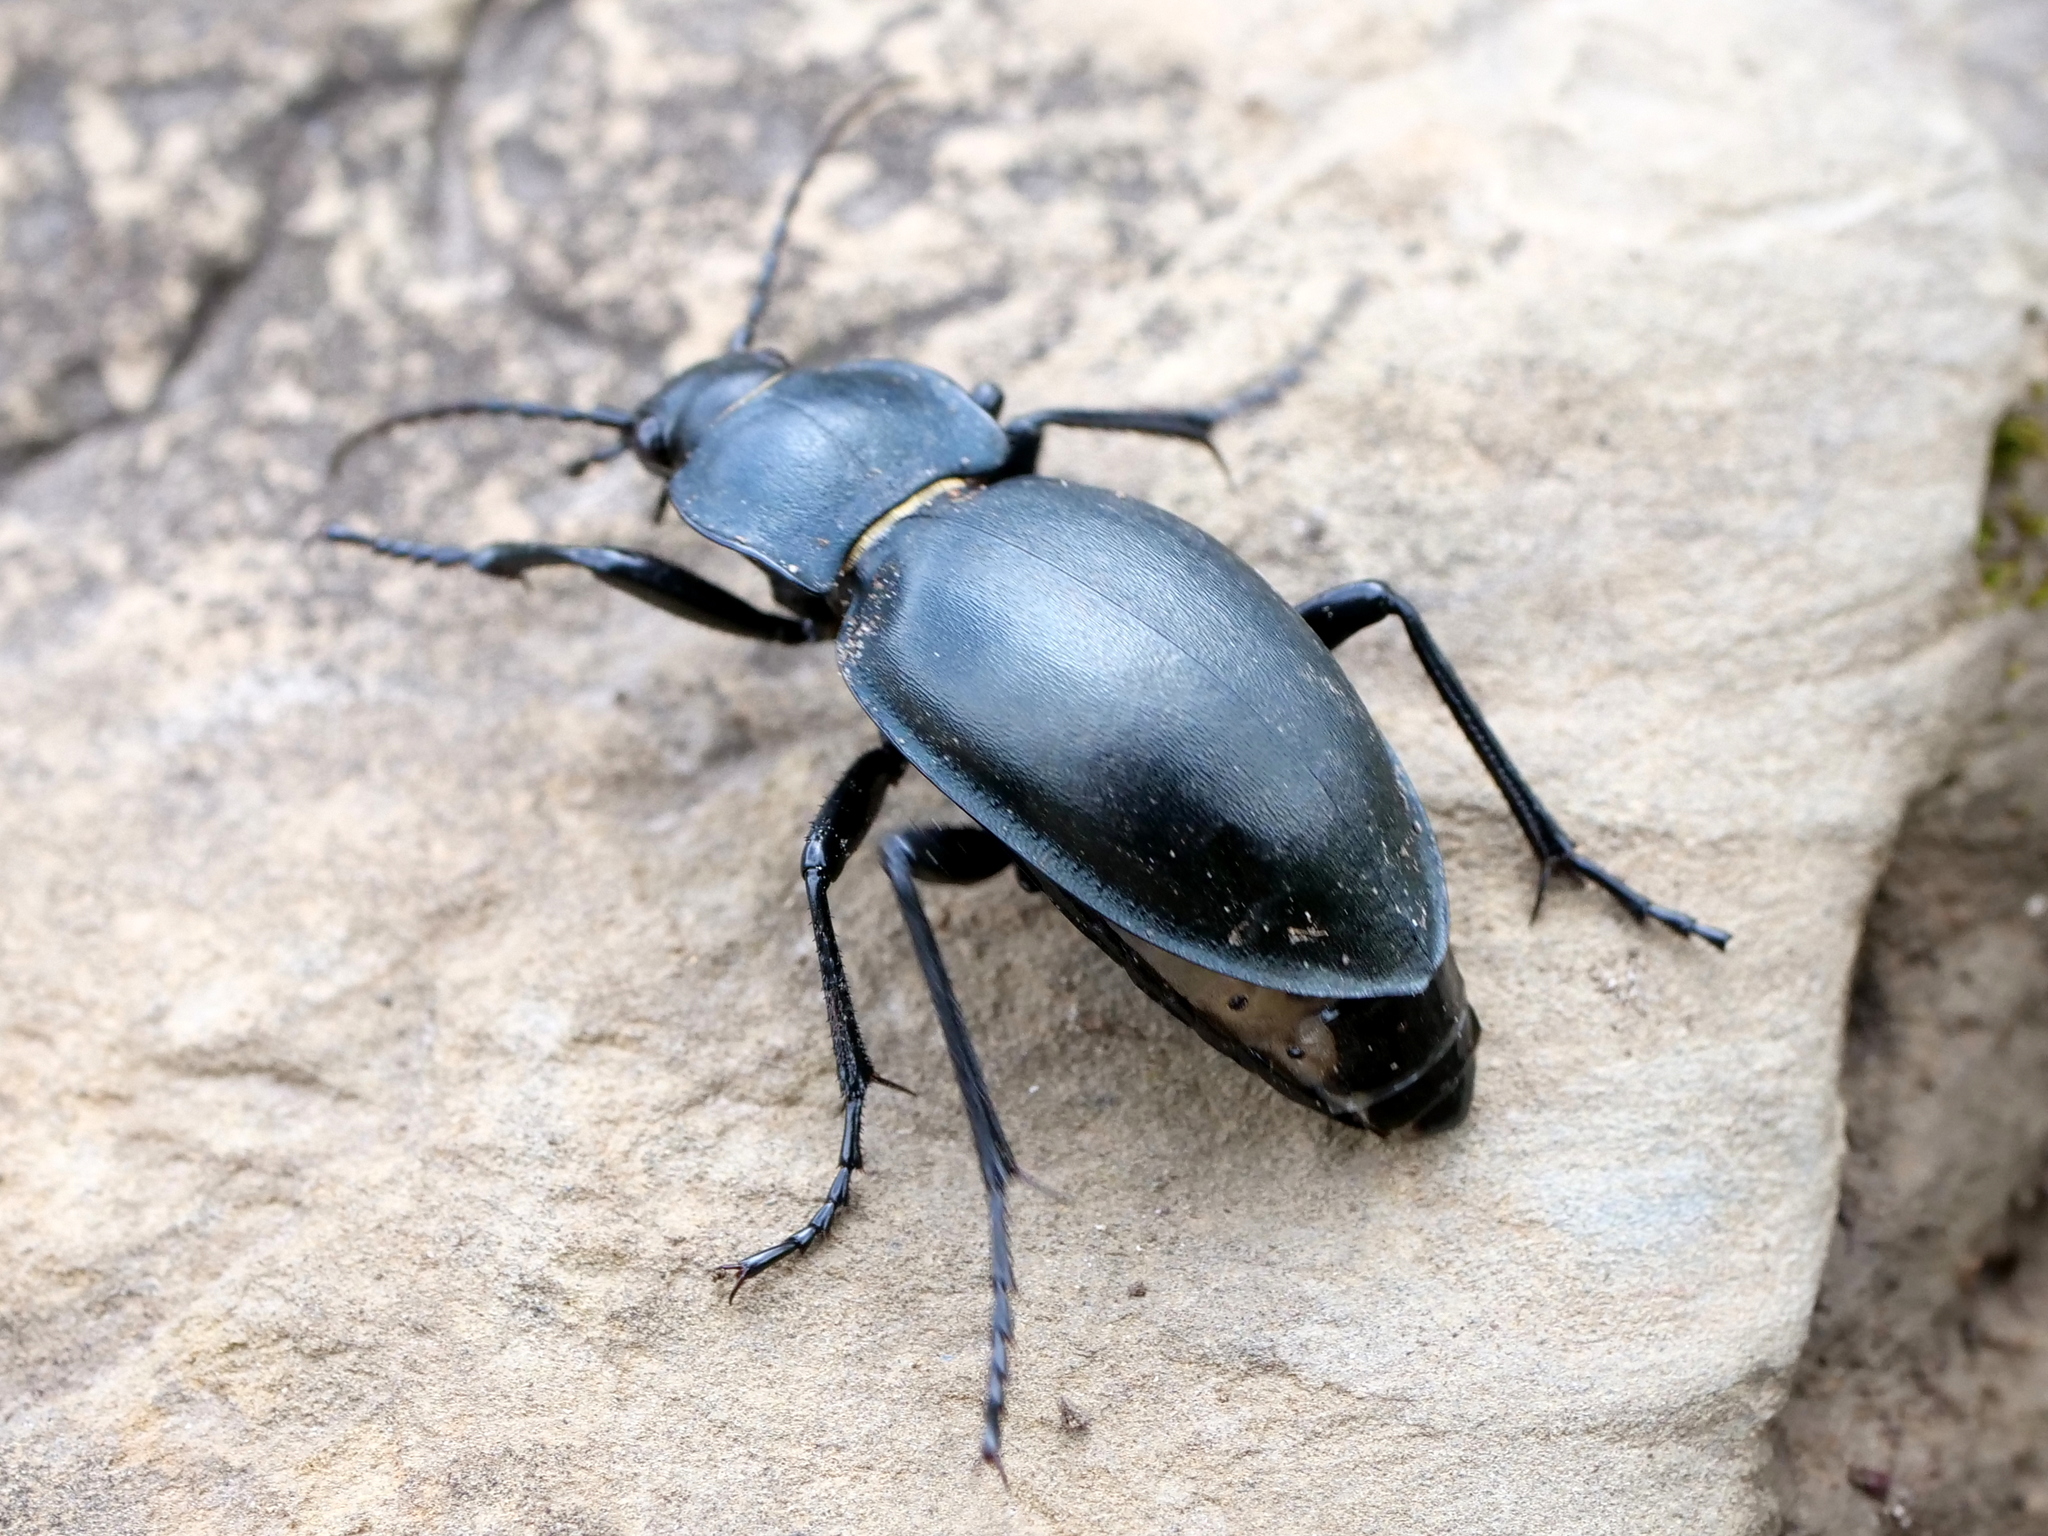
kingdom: Animalia
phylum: Arthropoda
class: Insecta
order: Coleoptera
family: Carabidae
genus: Carabus
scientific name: Carabus glabratus
